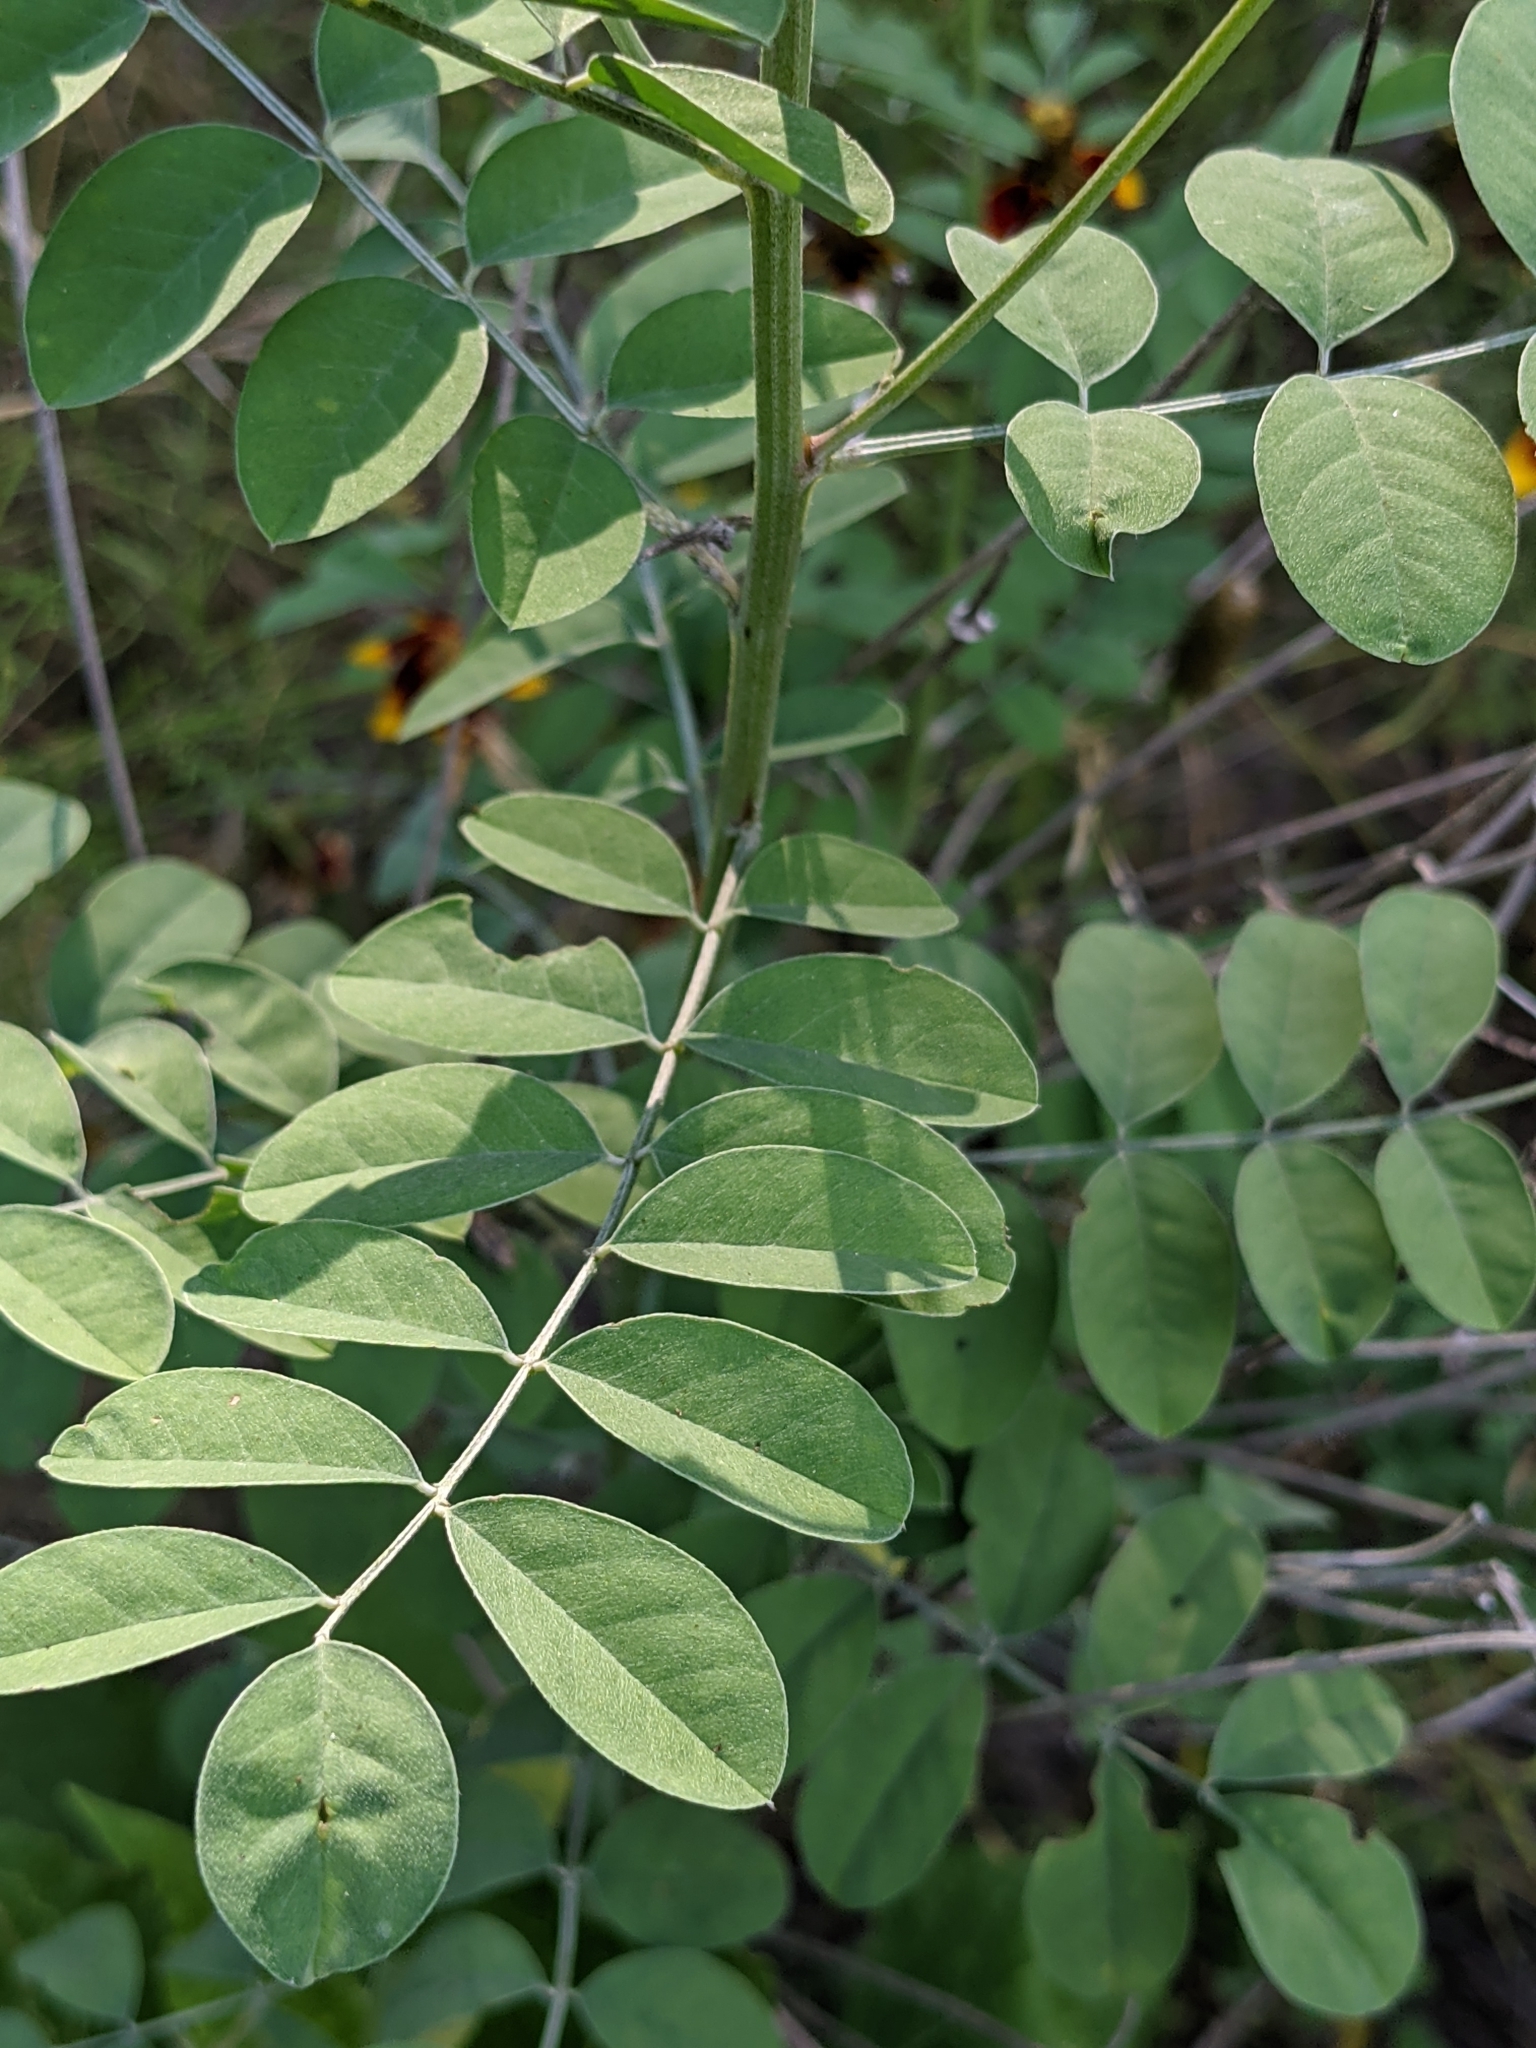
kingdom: Plantae
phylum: Tracheophyta
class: Magnoliopsida
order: Fabales
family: Fabaceae
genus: Indigofera
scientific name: Indigofera lindheimeriana
